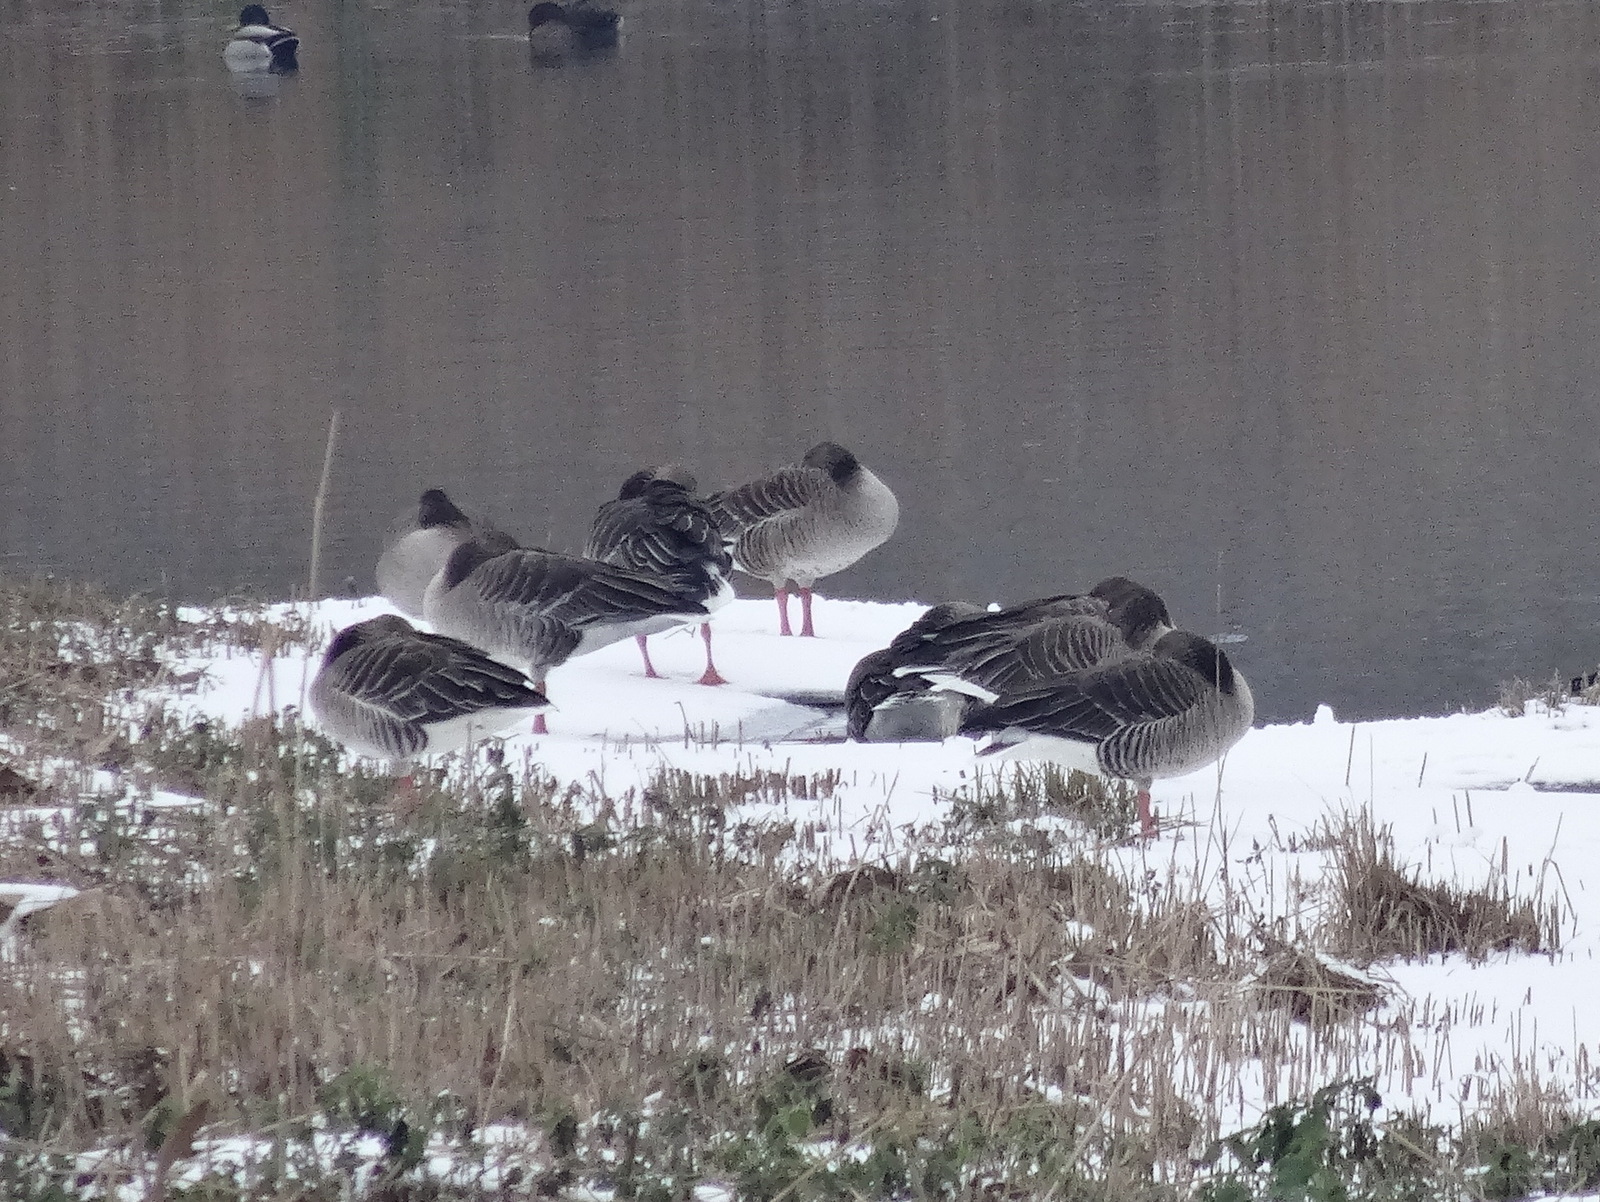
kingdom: Animalia
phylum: Chordata
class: Aves
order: Anseriformes
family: Anatidae
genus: Anser
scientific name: Anser anser
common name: Greylag goose
